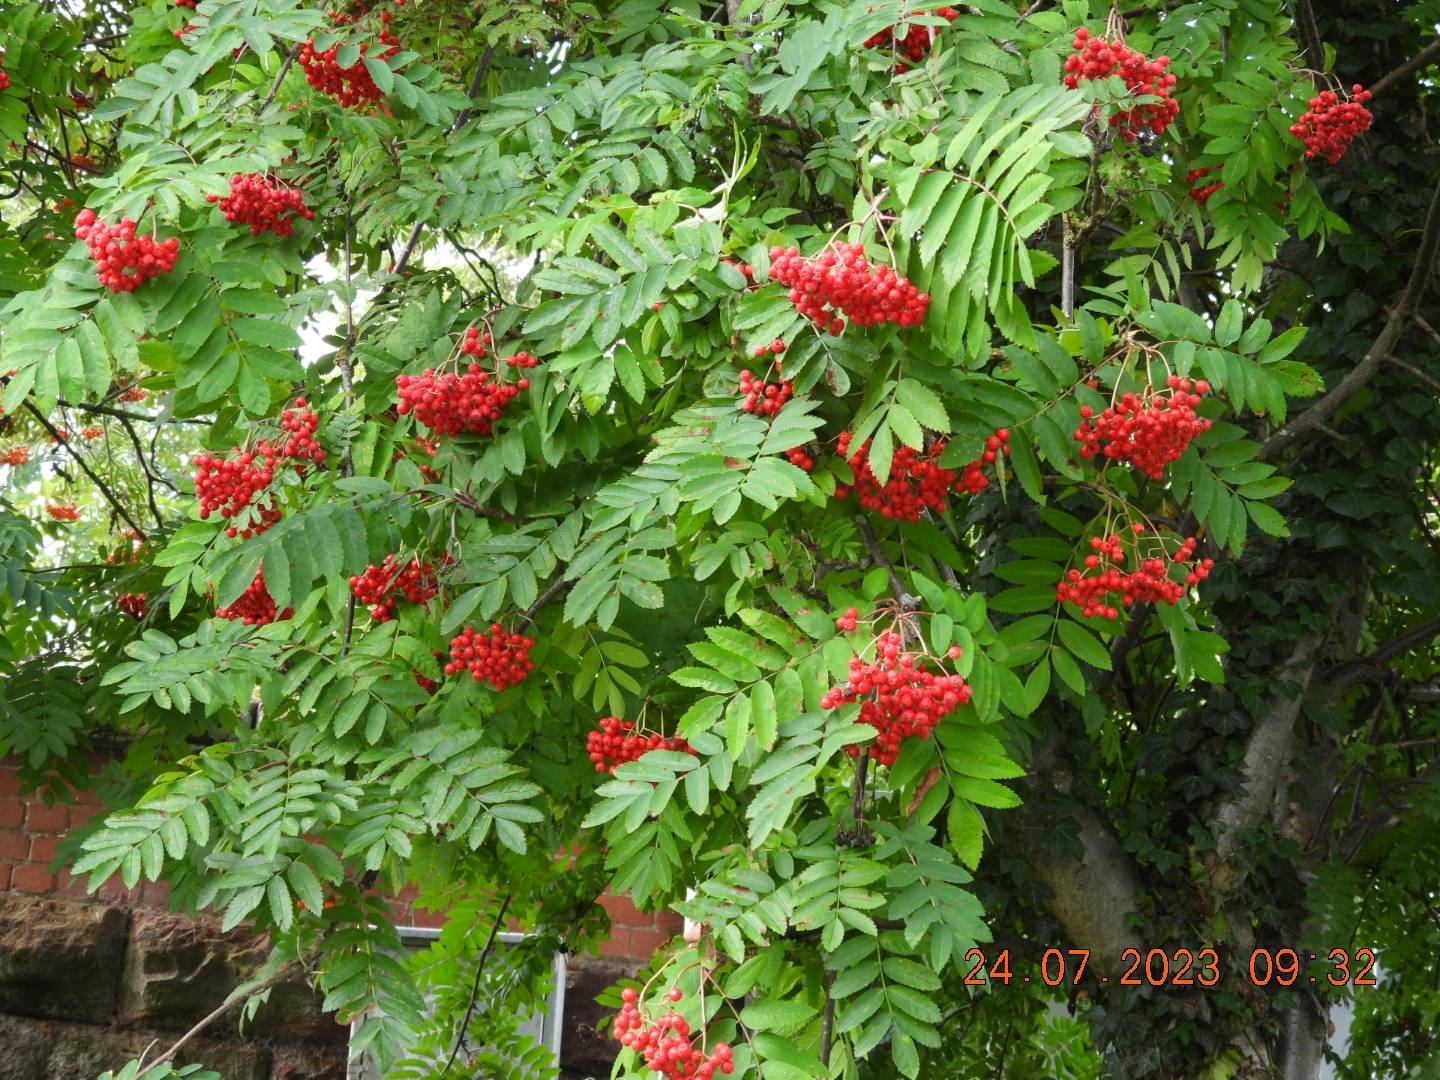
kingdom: Plantae
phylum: Tracheophyta
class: Magnoliopsida
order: Rosales
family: Rosaceae
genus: Sorbus
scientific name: Sorbus aucuparia
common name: Rowan
